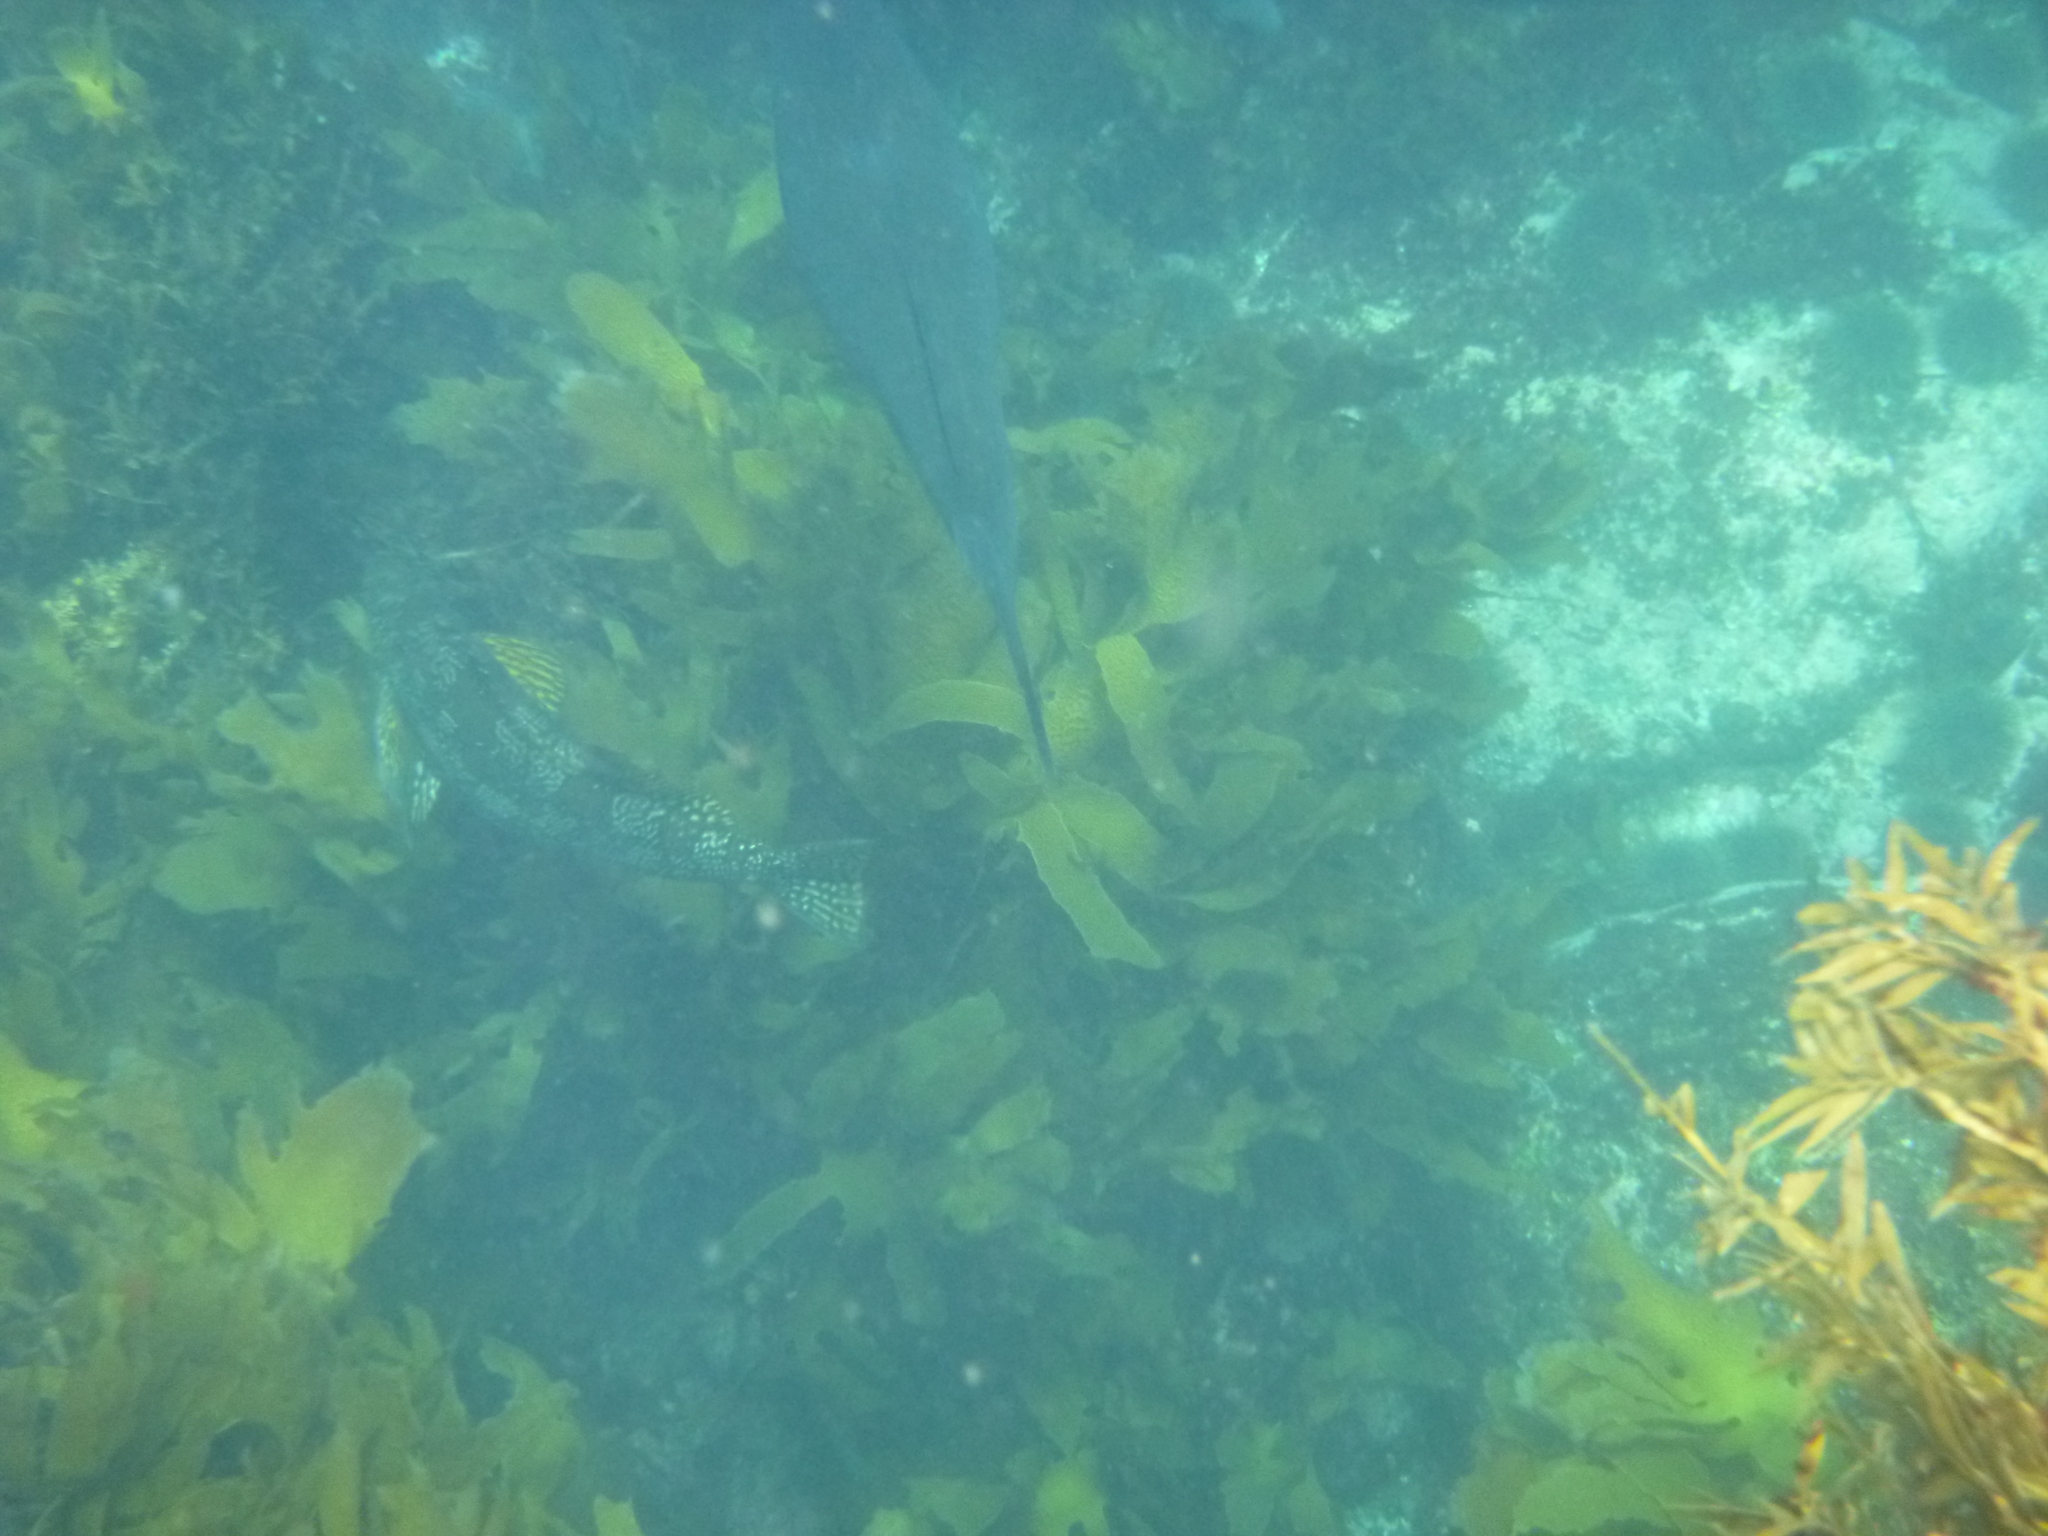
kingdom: Animalia
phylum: Chordata
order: Perciformes
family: Aplodactylidae
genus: Aplodactylus
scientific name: Aplodactylus arctidens
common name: Marblefish
